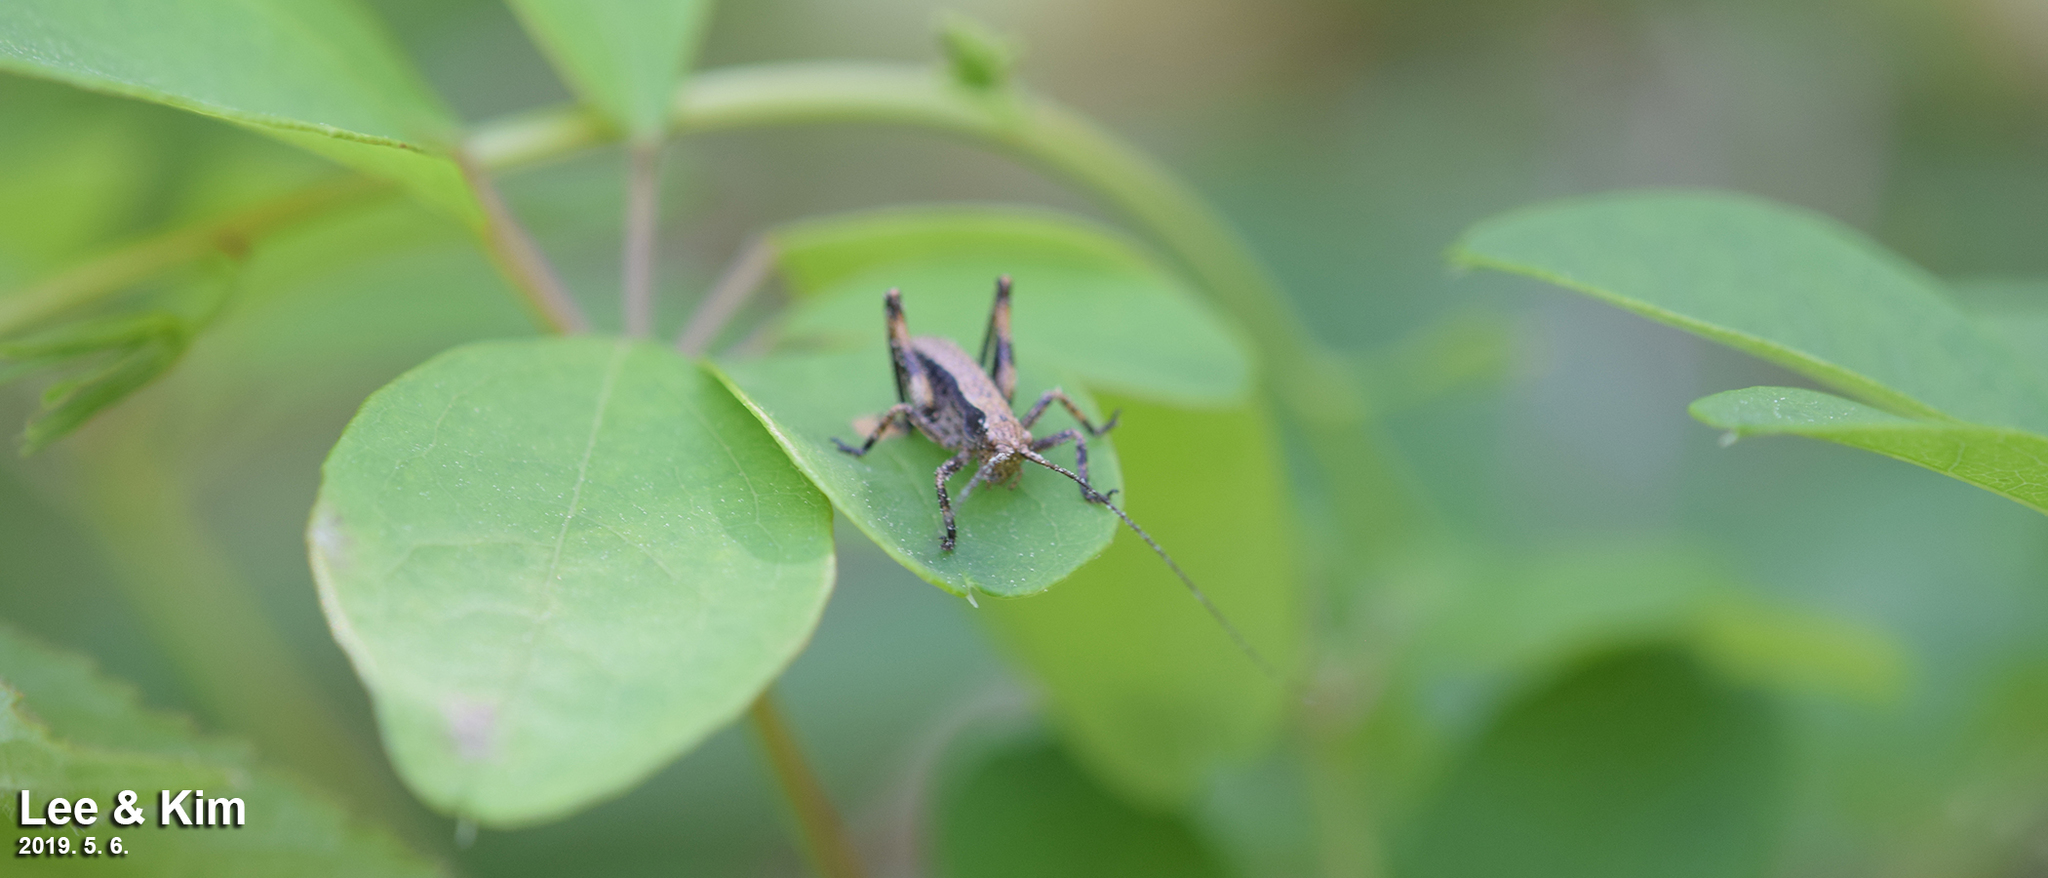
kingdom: Animalia
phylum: Arthropoda
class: Insecta
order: Orthoptera
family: Tettigoniidae
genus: Paratlanticus
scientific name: Paratlanticus ussuriensis
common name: Ussur brown katydid
